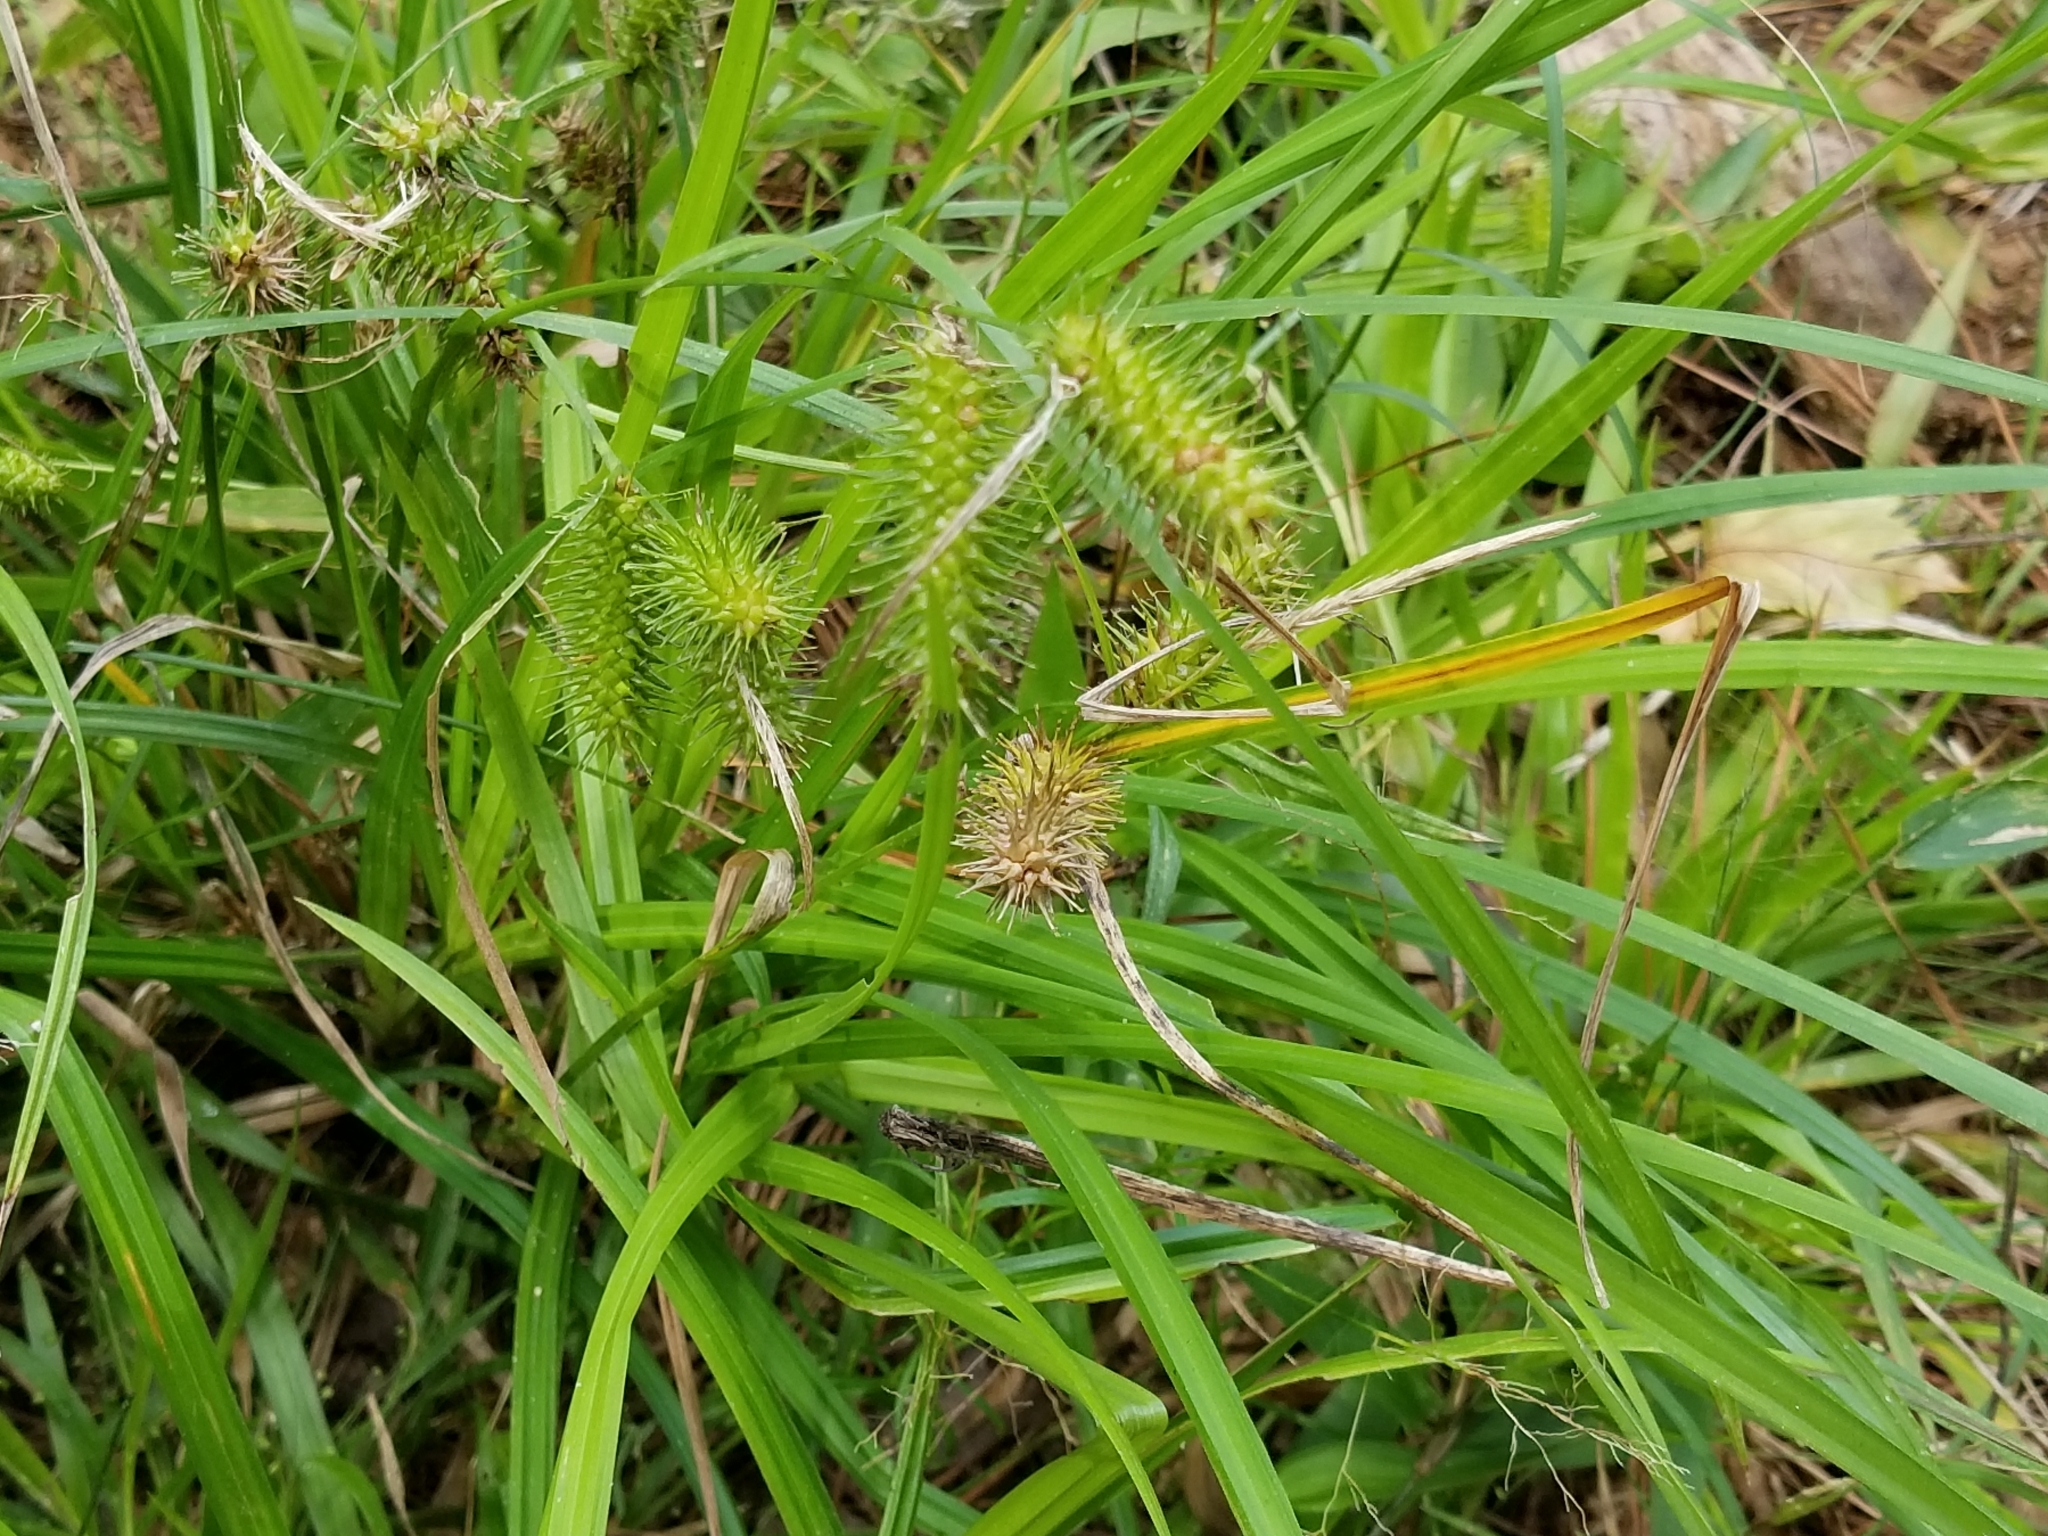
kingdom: Plantae
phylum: Tracheophyta
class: Liliopsida
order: Poales
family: Cyperaceae
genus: Carex
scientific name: Carex lurida
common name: Sallow sedge
